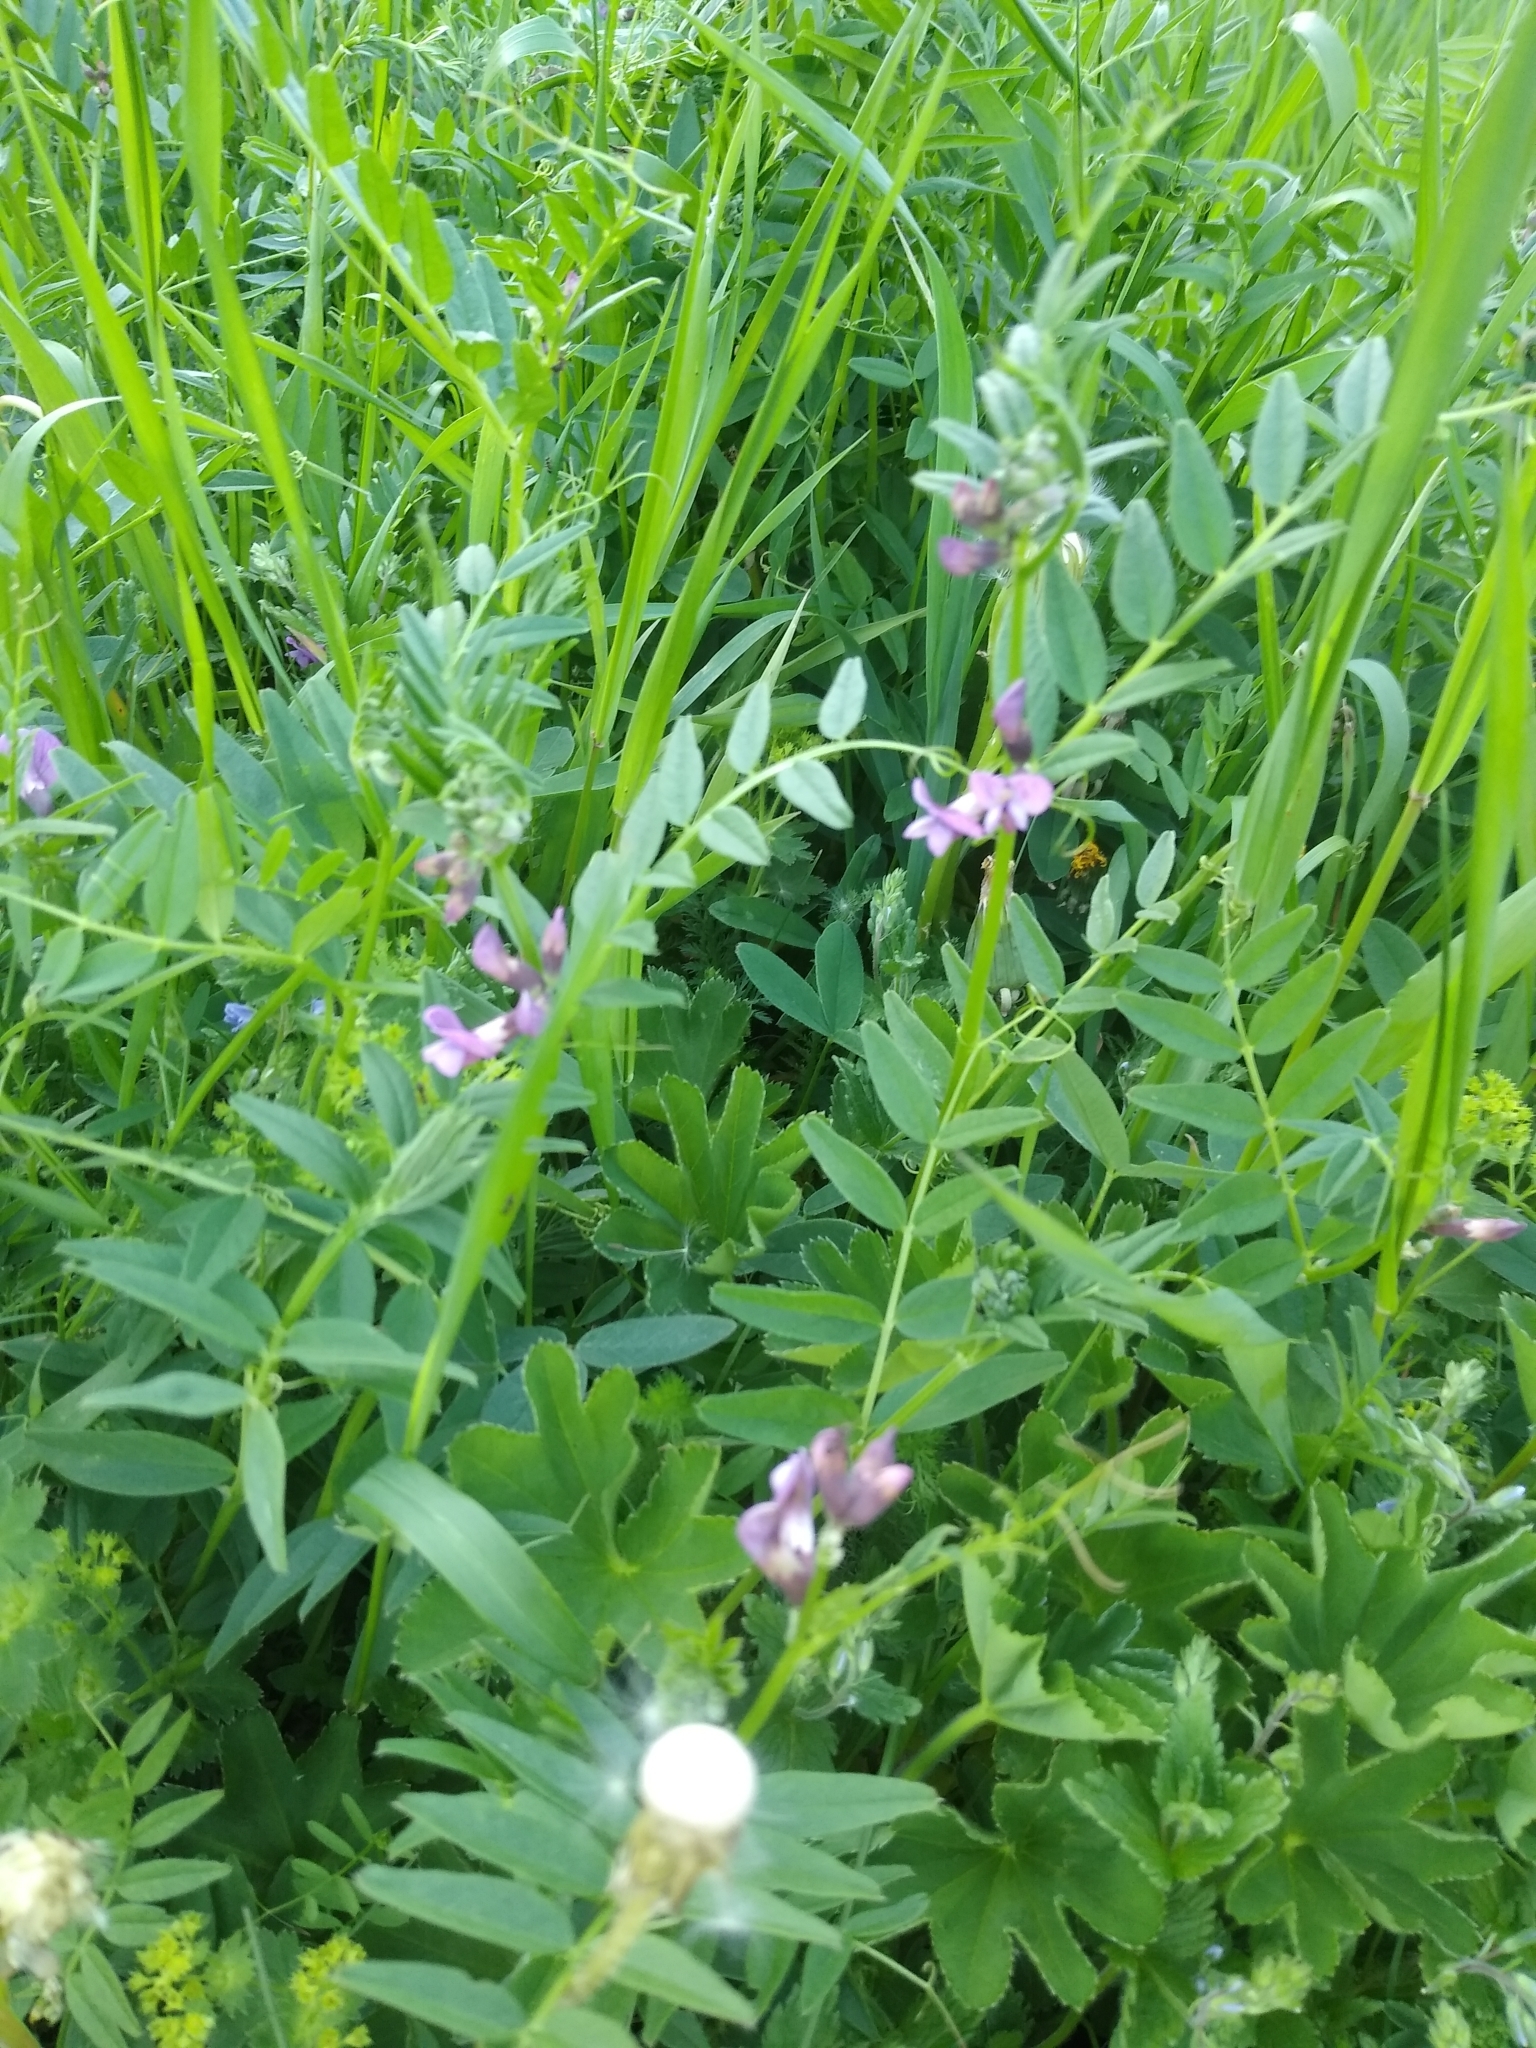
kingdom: Plantae
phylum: Tracheophyta
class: Magnoliopsida
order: Fabales
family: Fabaceae
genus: Vicia
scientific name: Vicia sepium
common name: Bush vetch
